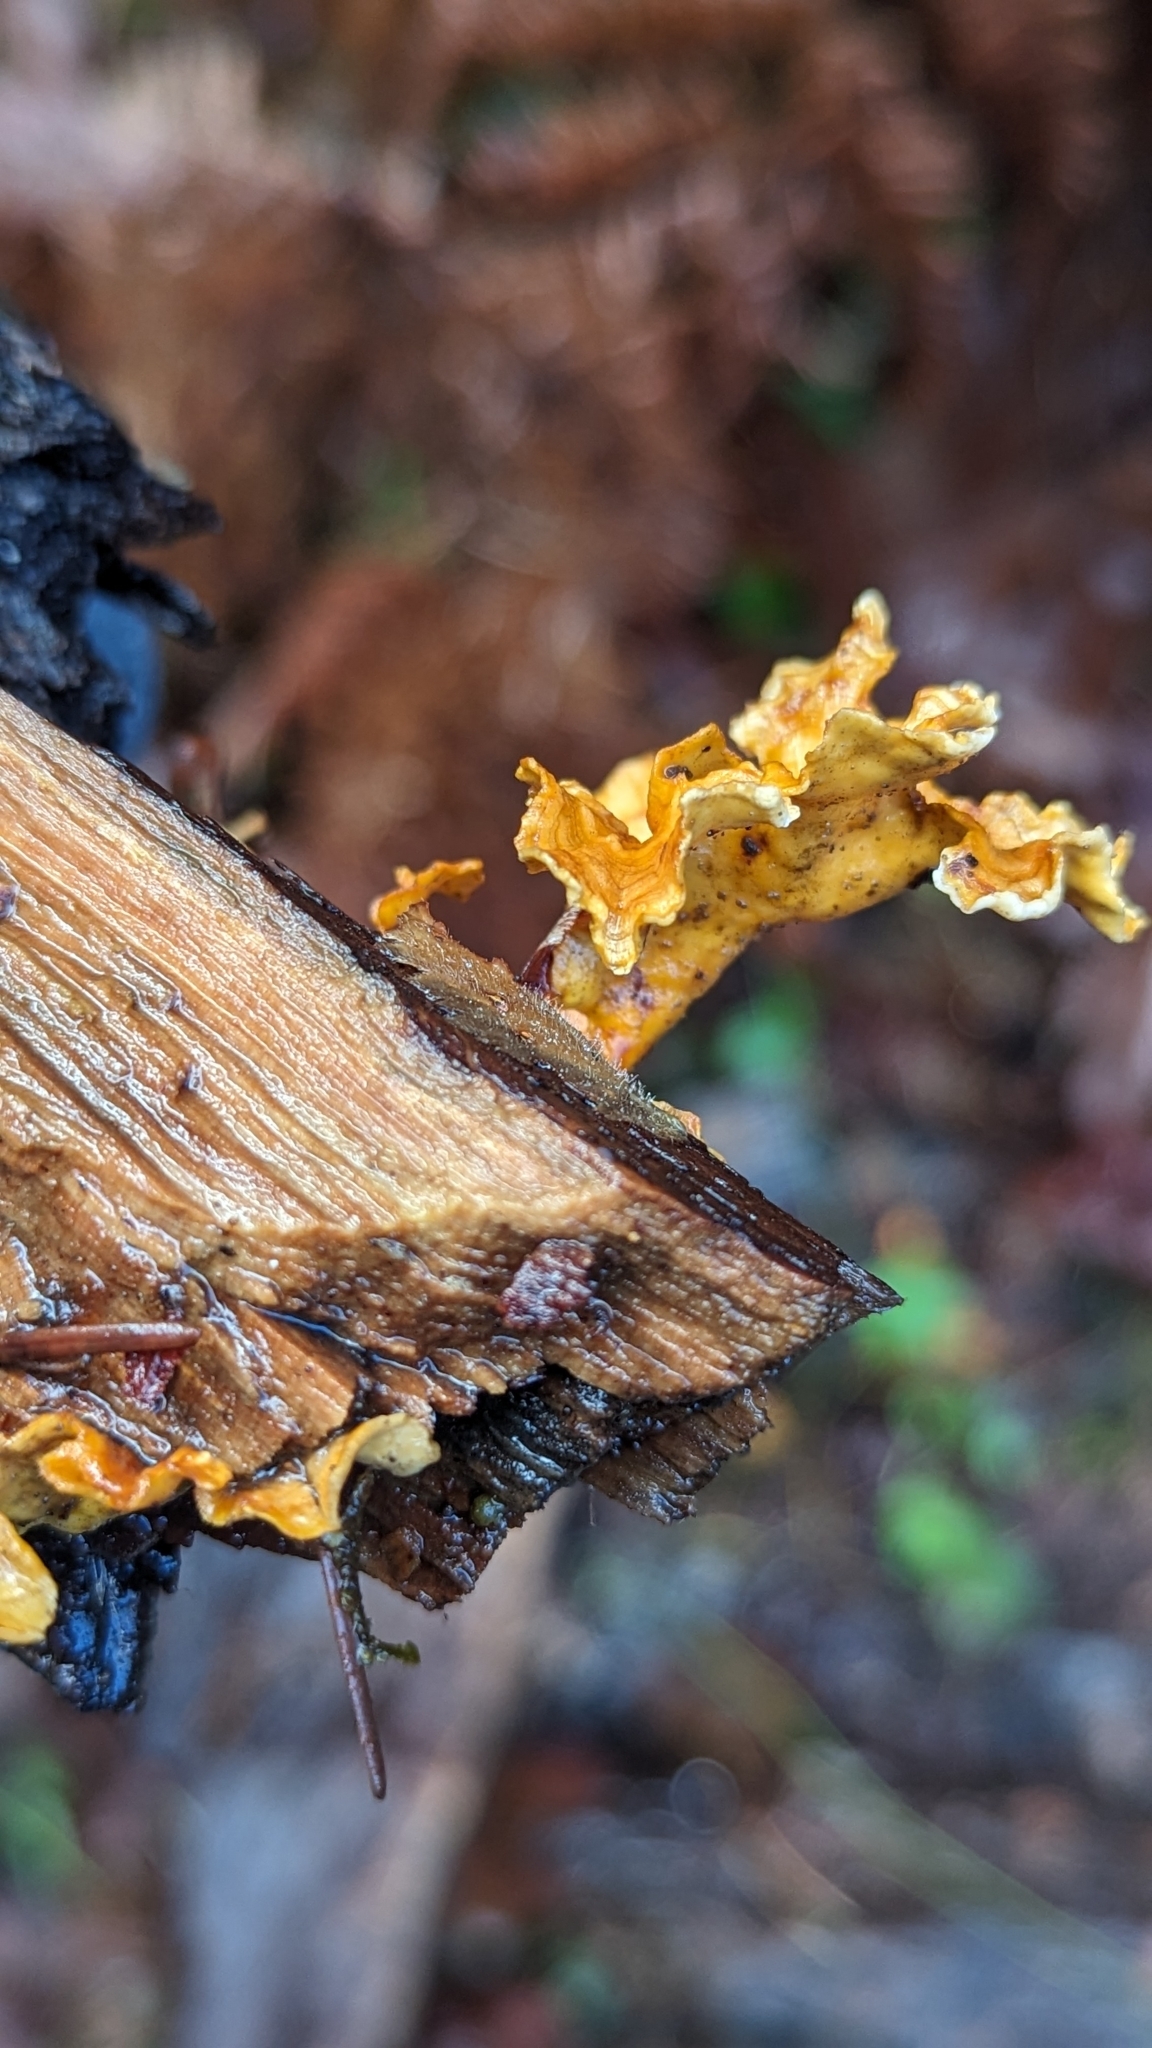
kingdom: Fungi
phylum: Basidiomycota
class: Agaricomycetes
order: Russulales
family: Stereaceae
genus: Stereum
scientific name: Stereum complicatum
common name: Crowded parchment
